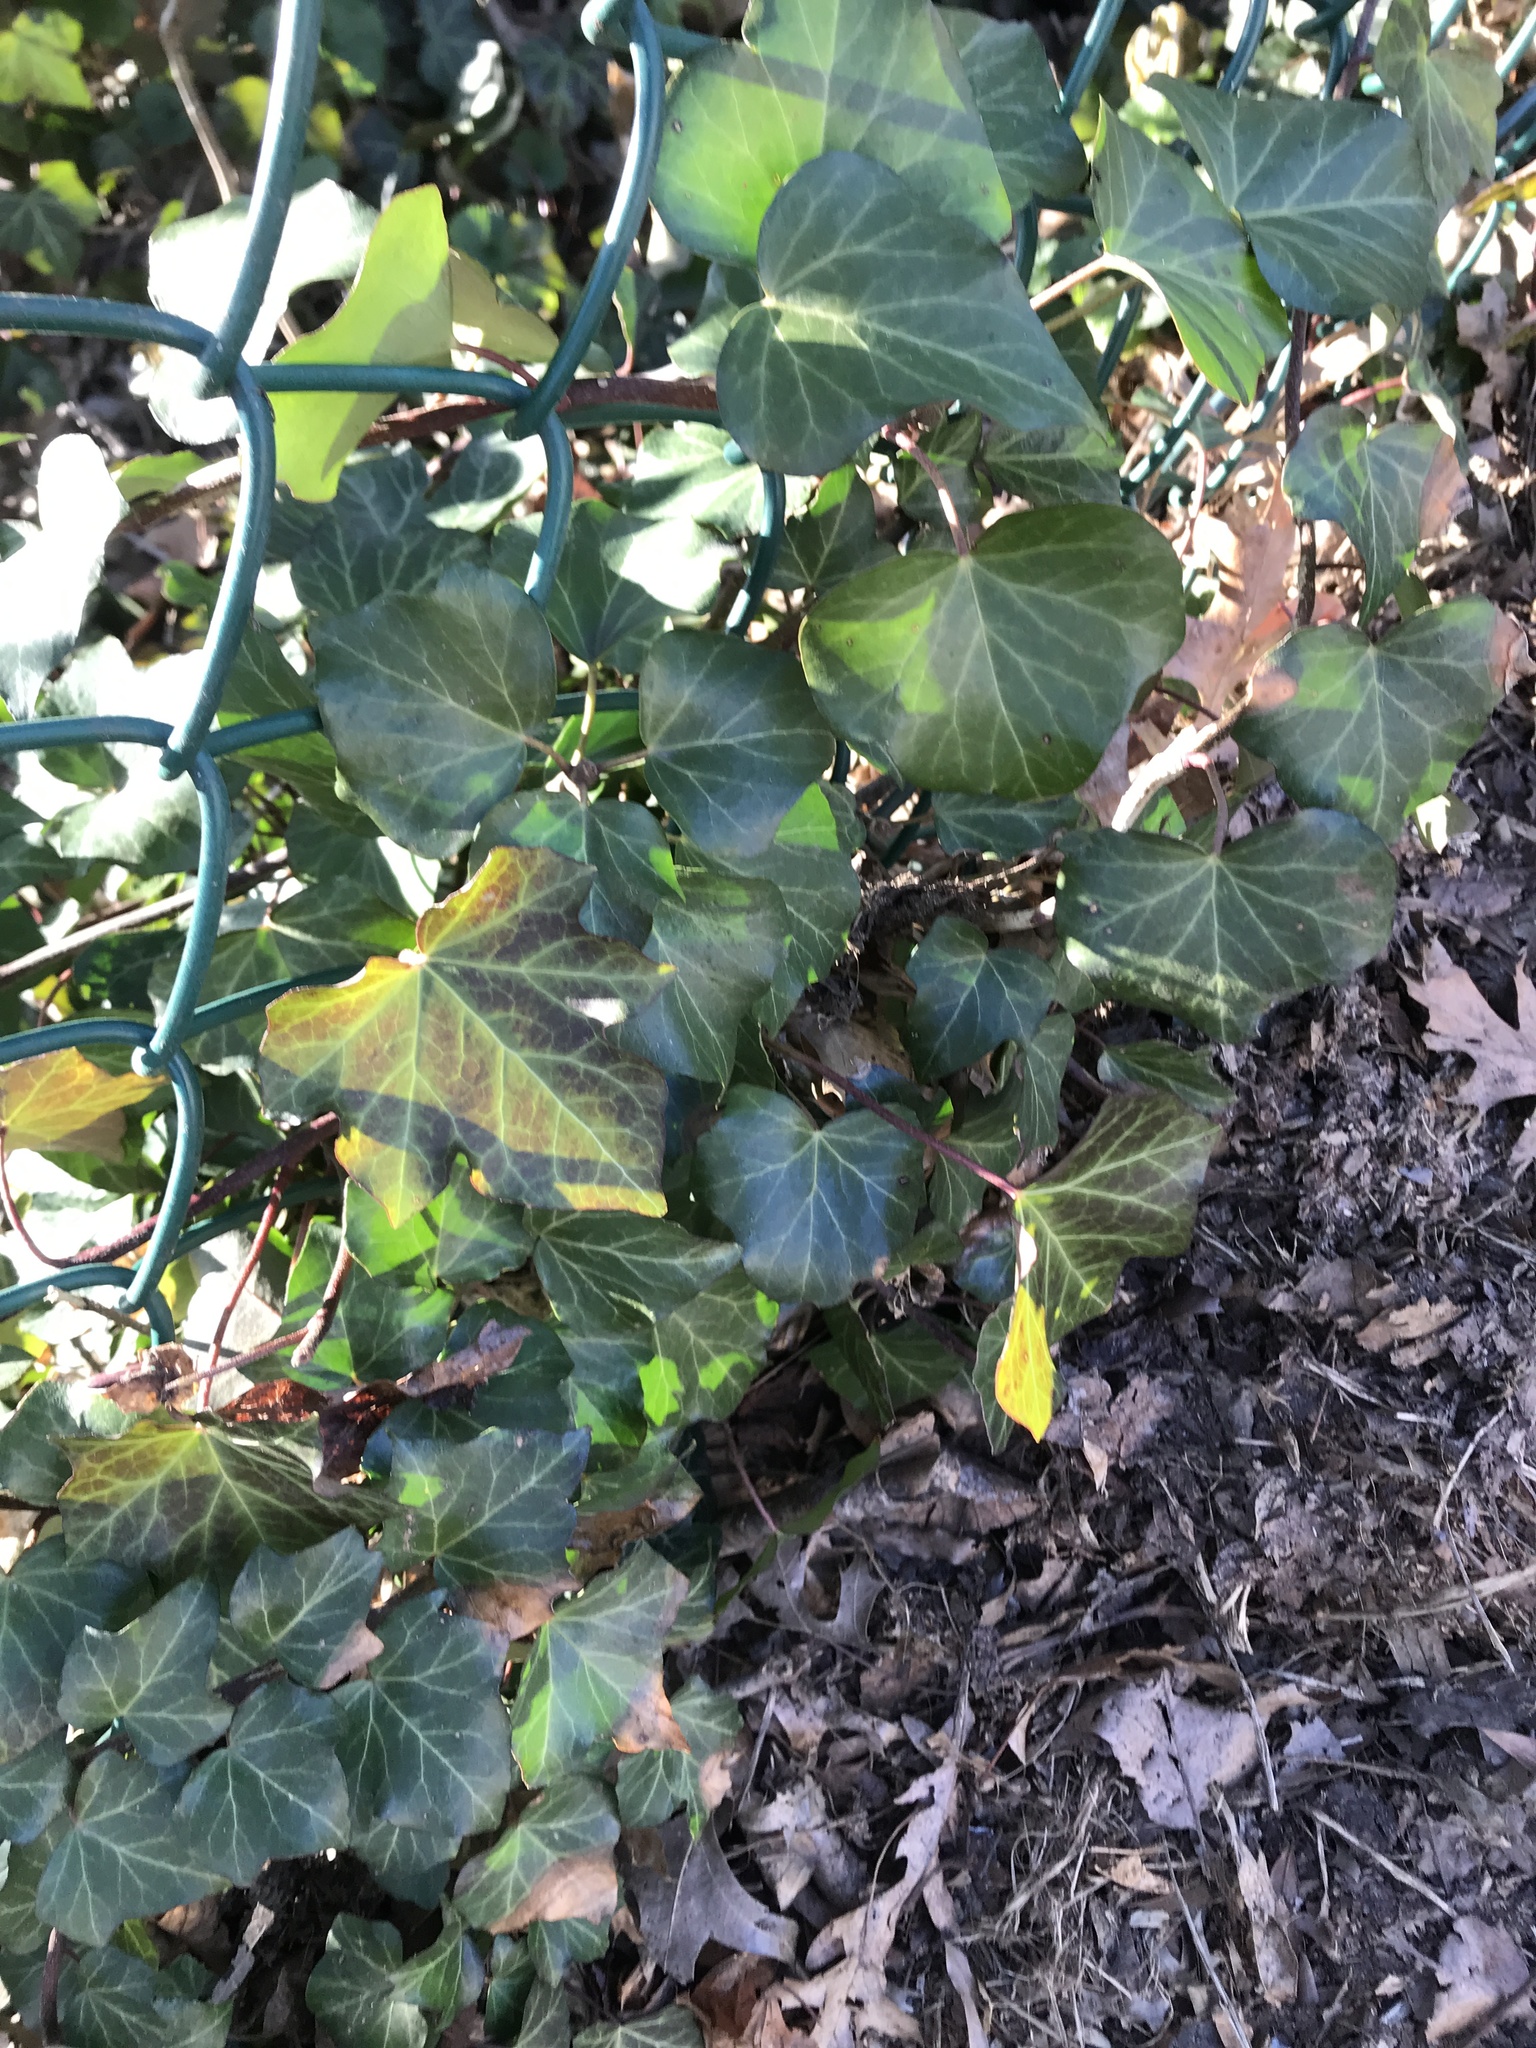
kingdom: Plantae
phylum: Tracheophyta
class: Magnoliopsida
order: Apiales
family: Araliaceae
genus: Hedera
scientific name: Hedera helix
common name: Ivy
